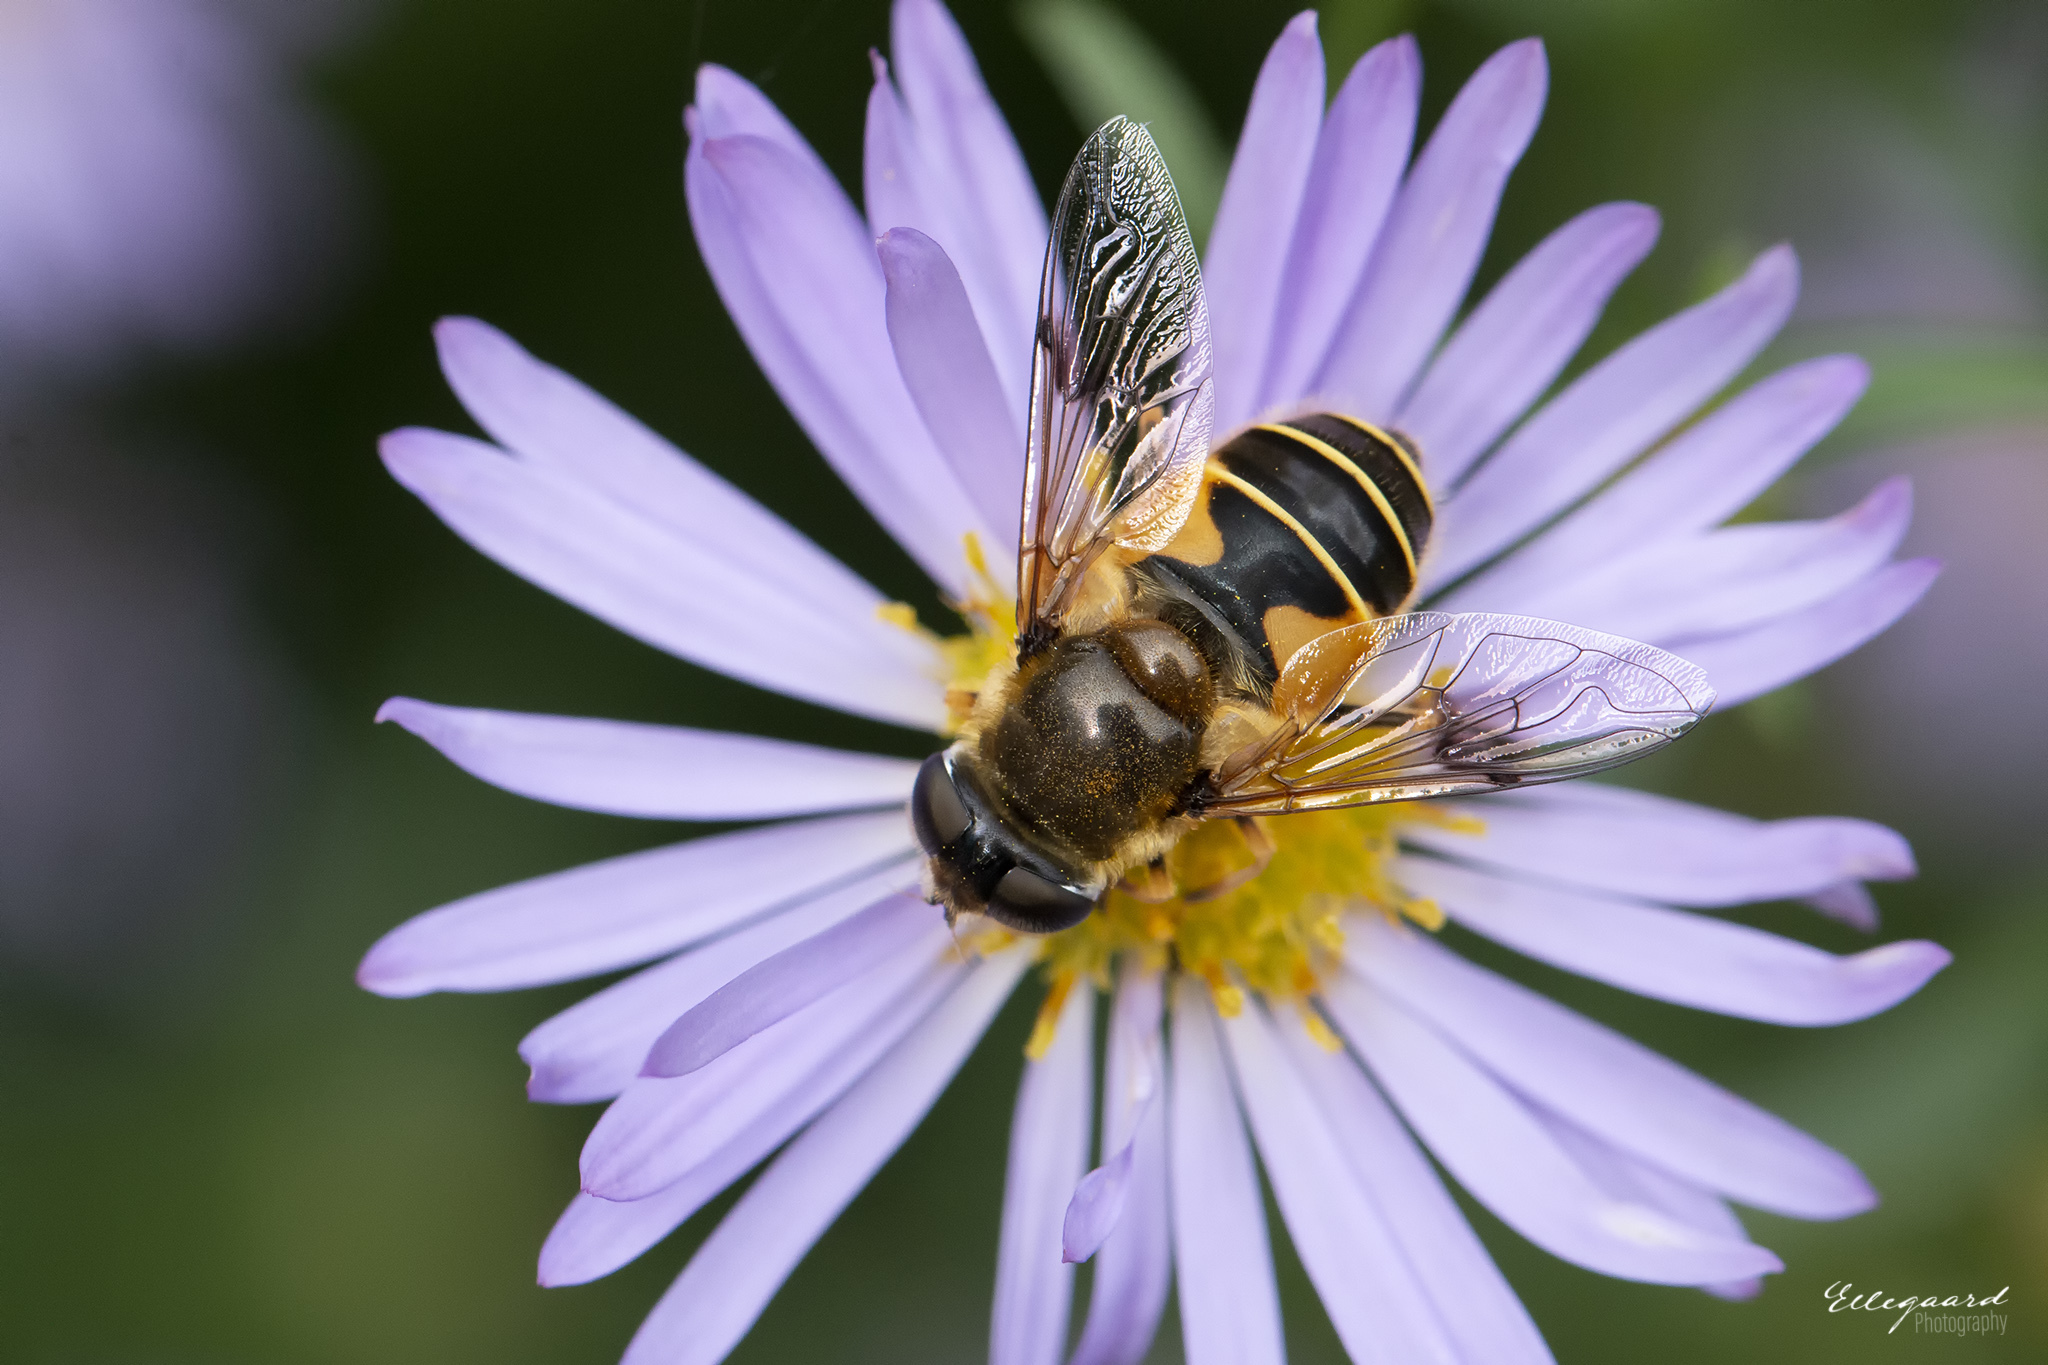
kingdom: Animalia
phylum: Arthropoda
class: Insecta
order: Diptera
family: Syrphidae
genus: Cheilosia
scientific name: Cheilosia morio
